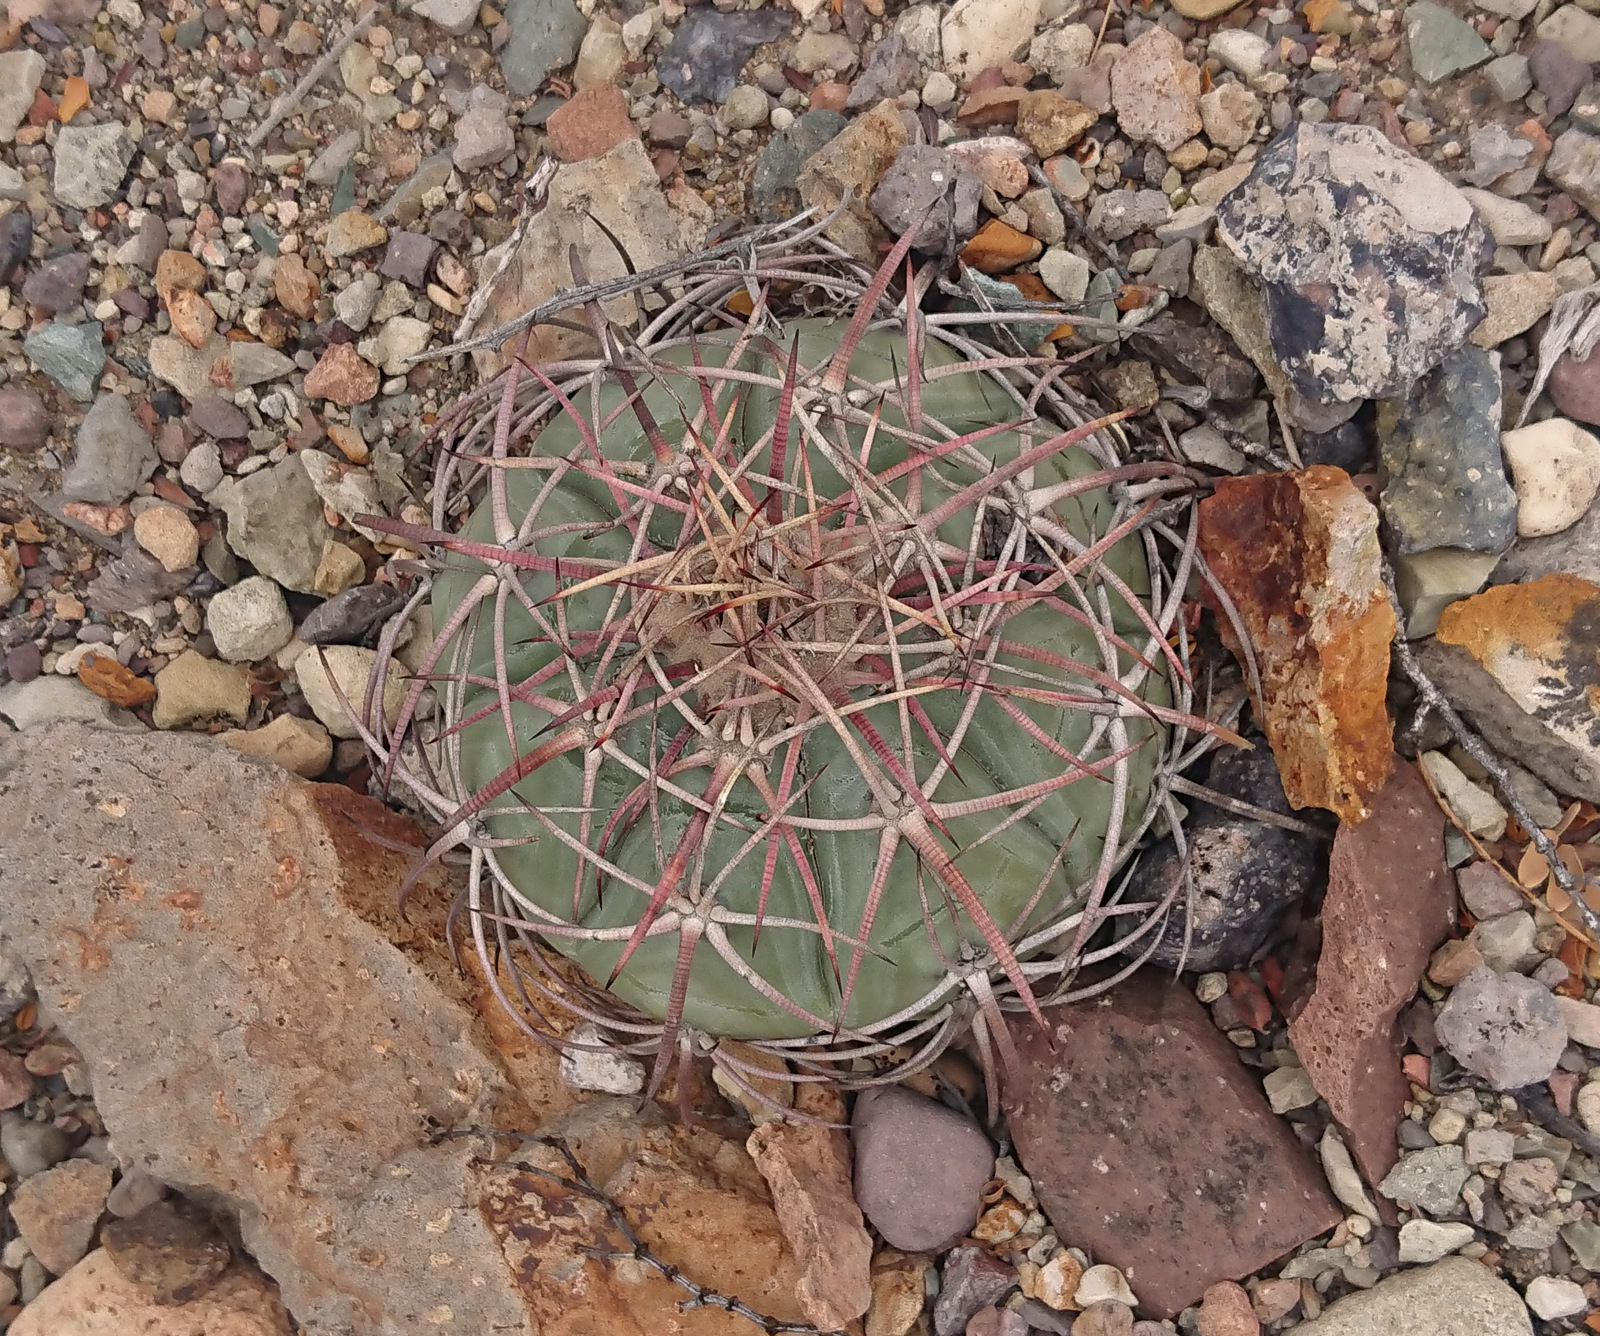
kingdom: Plantae
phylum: Tracheophyta
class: Magnoliopsida
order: Caryophyllales
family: Cactaceae
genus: Echinocactus
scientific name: Echinocactus horizonthalonius
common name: Devilshead
